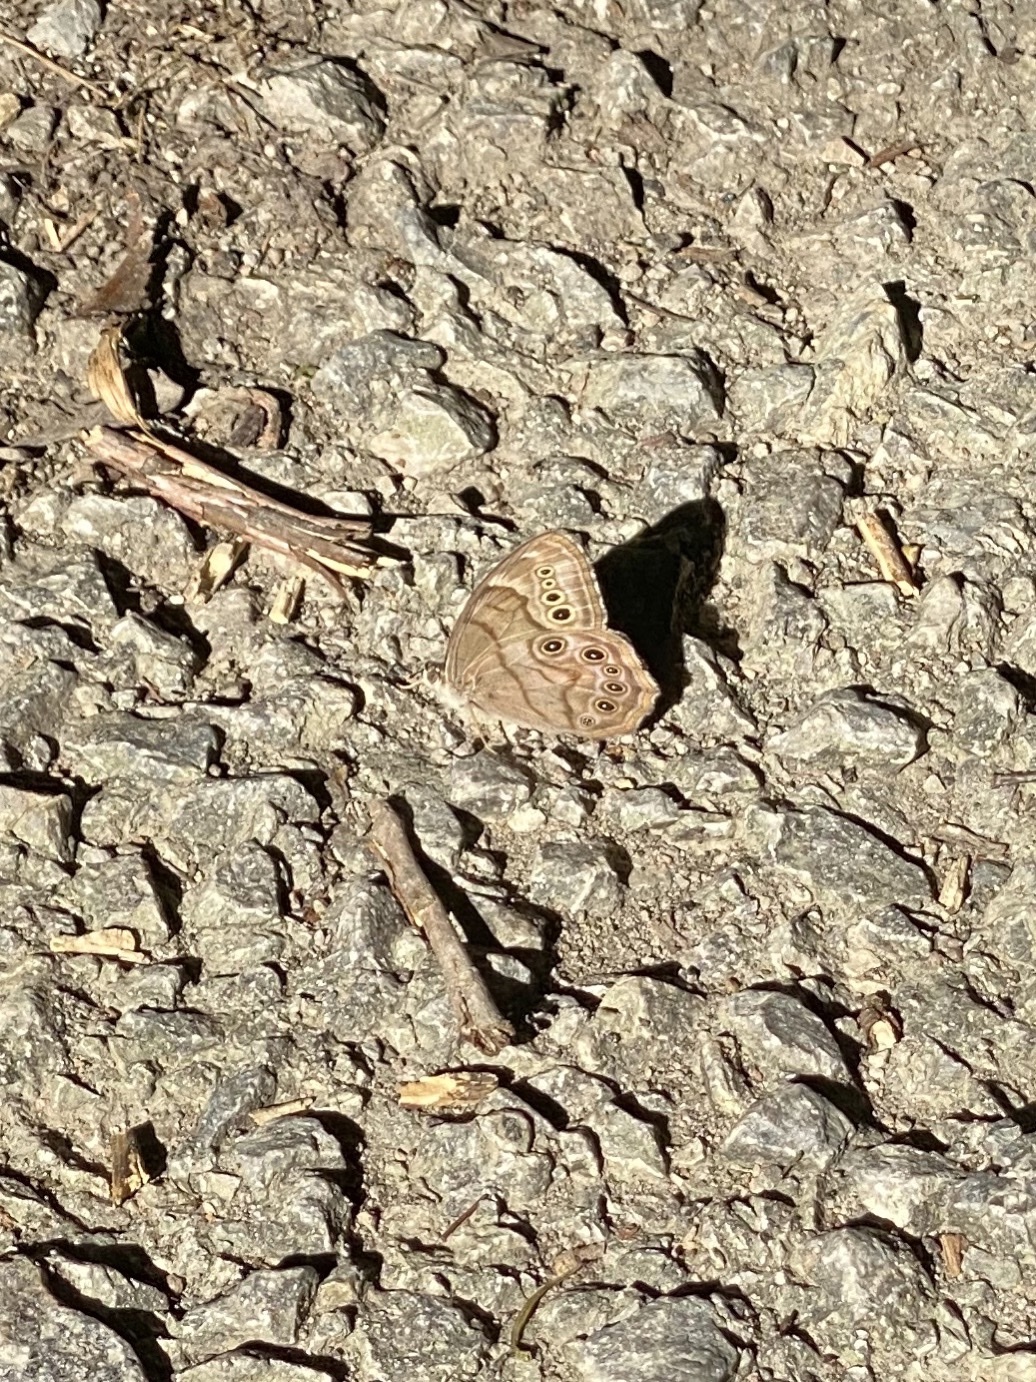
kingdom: Animalia
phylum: Arthropoda
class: Insecta
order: Lepidoptera
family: Nymphalidae
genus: Lethe
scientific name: Lethe anthedon
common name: Northern pearly-eye
